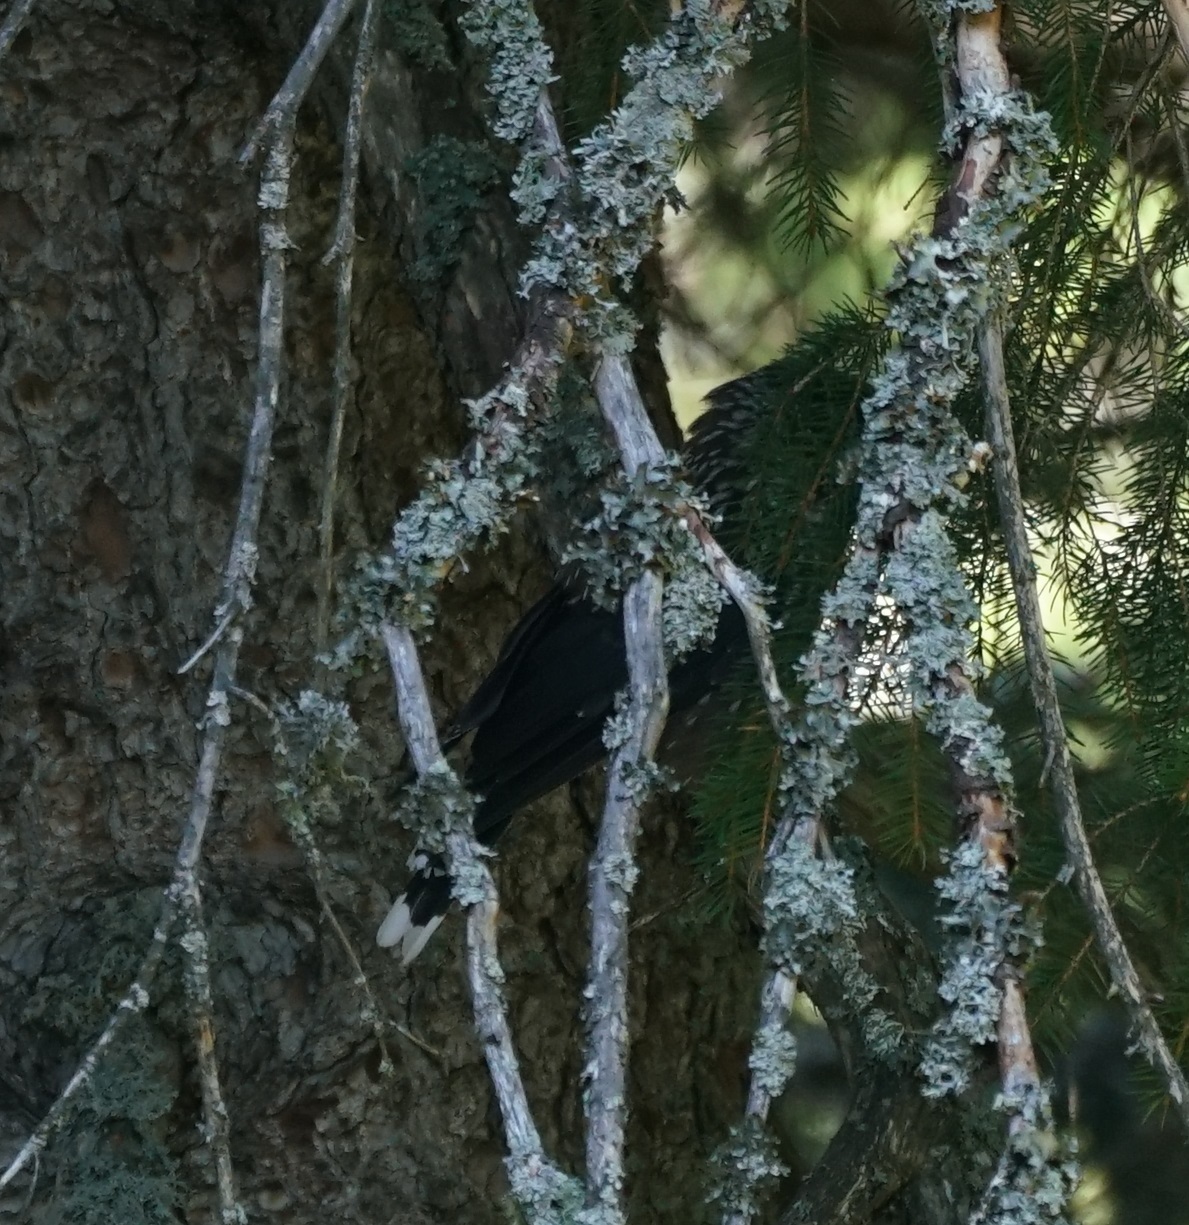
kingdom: Animalia
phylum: Chordata
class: Aves
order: Passeriformes
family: Corvidae
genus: Nucifraga
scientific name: Nucifraga caryocatactes
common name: Spotted nutcracker
